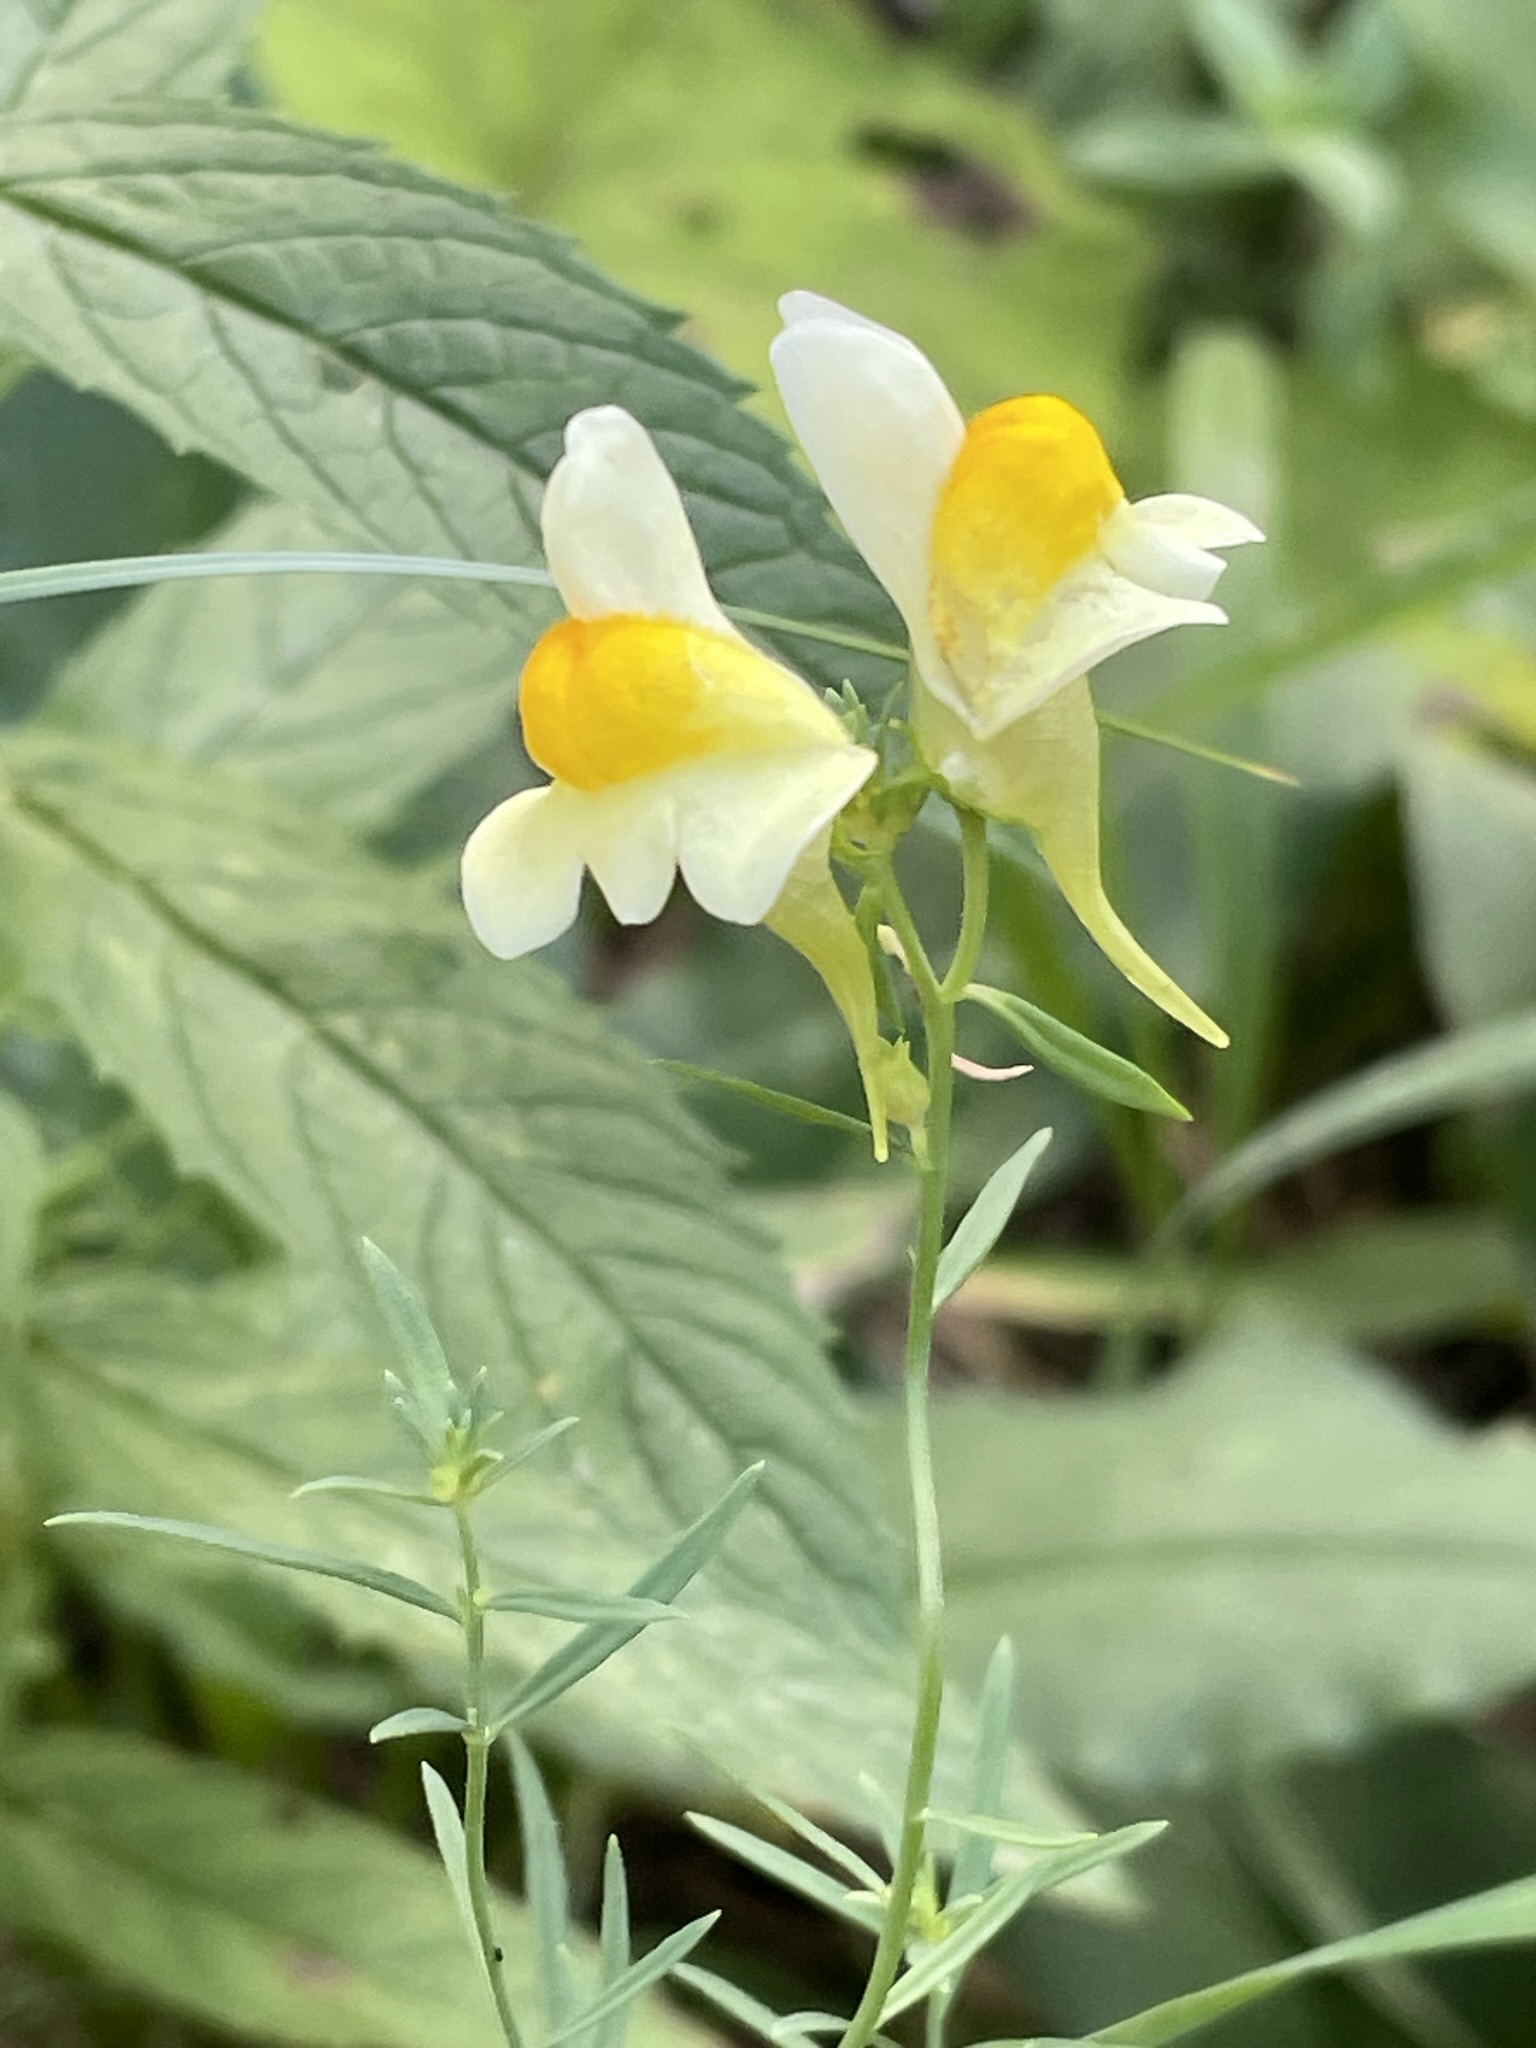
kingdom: Plantae
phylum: Tracheophyta
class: Magnoliopsida
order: Lamiales
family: Plantaginaceae
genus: Linaria
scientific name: Linaria vulgaris
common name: Butter and eggs
